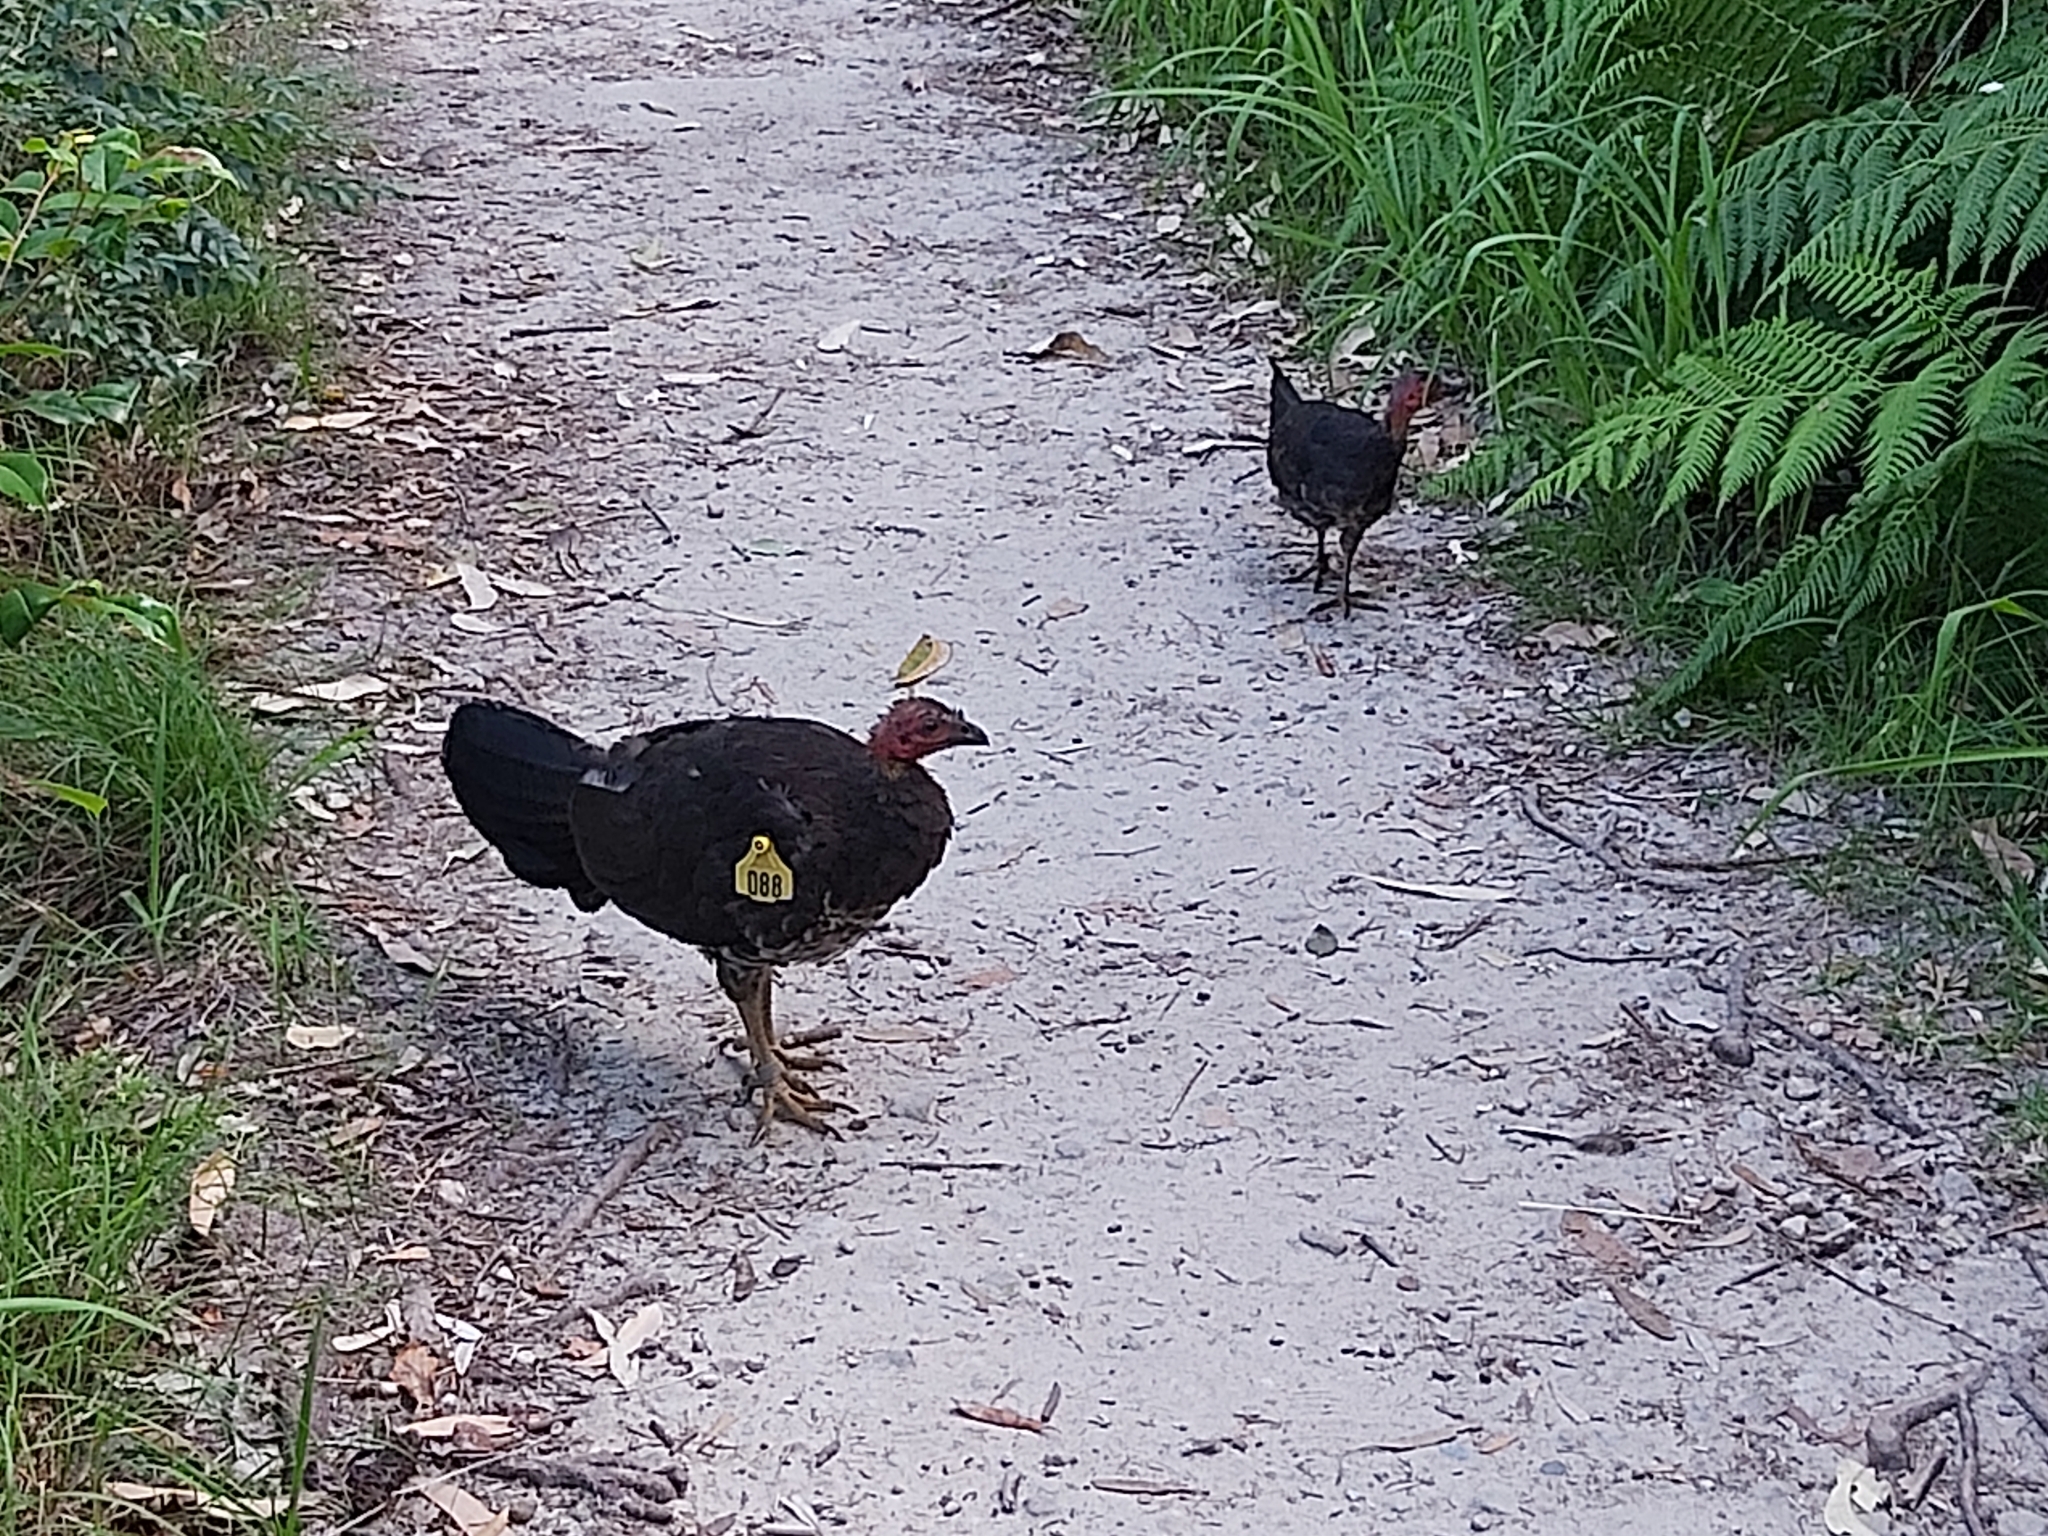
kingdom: Animalia
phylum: Chordata
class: Aves
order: Galliformes
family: Megapodiidae
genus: Alectura
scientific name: Alectura lathami
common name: Australian brushturkey
